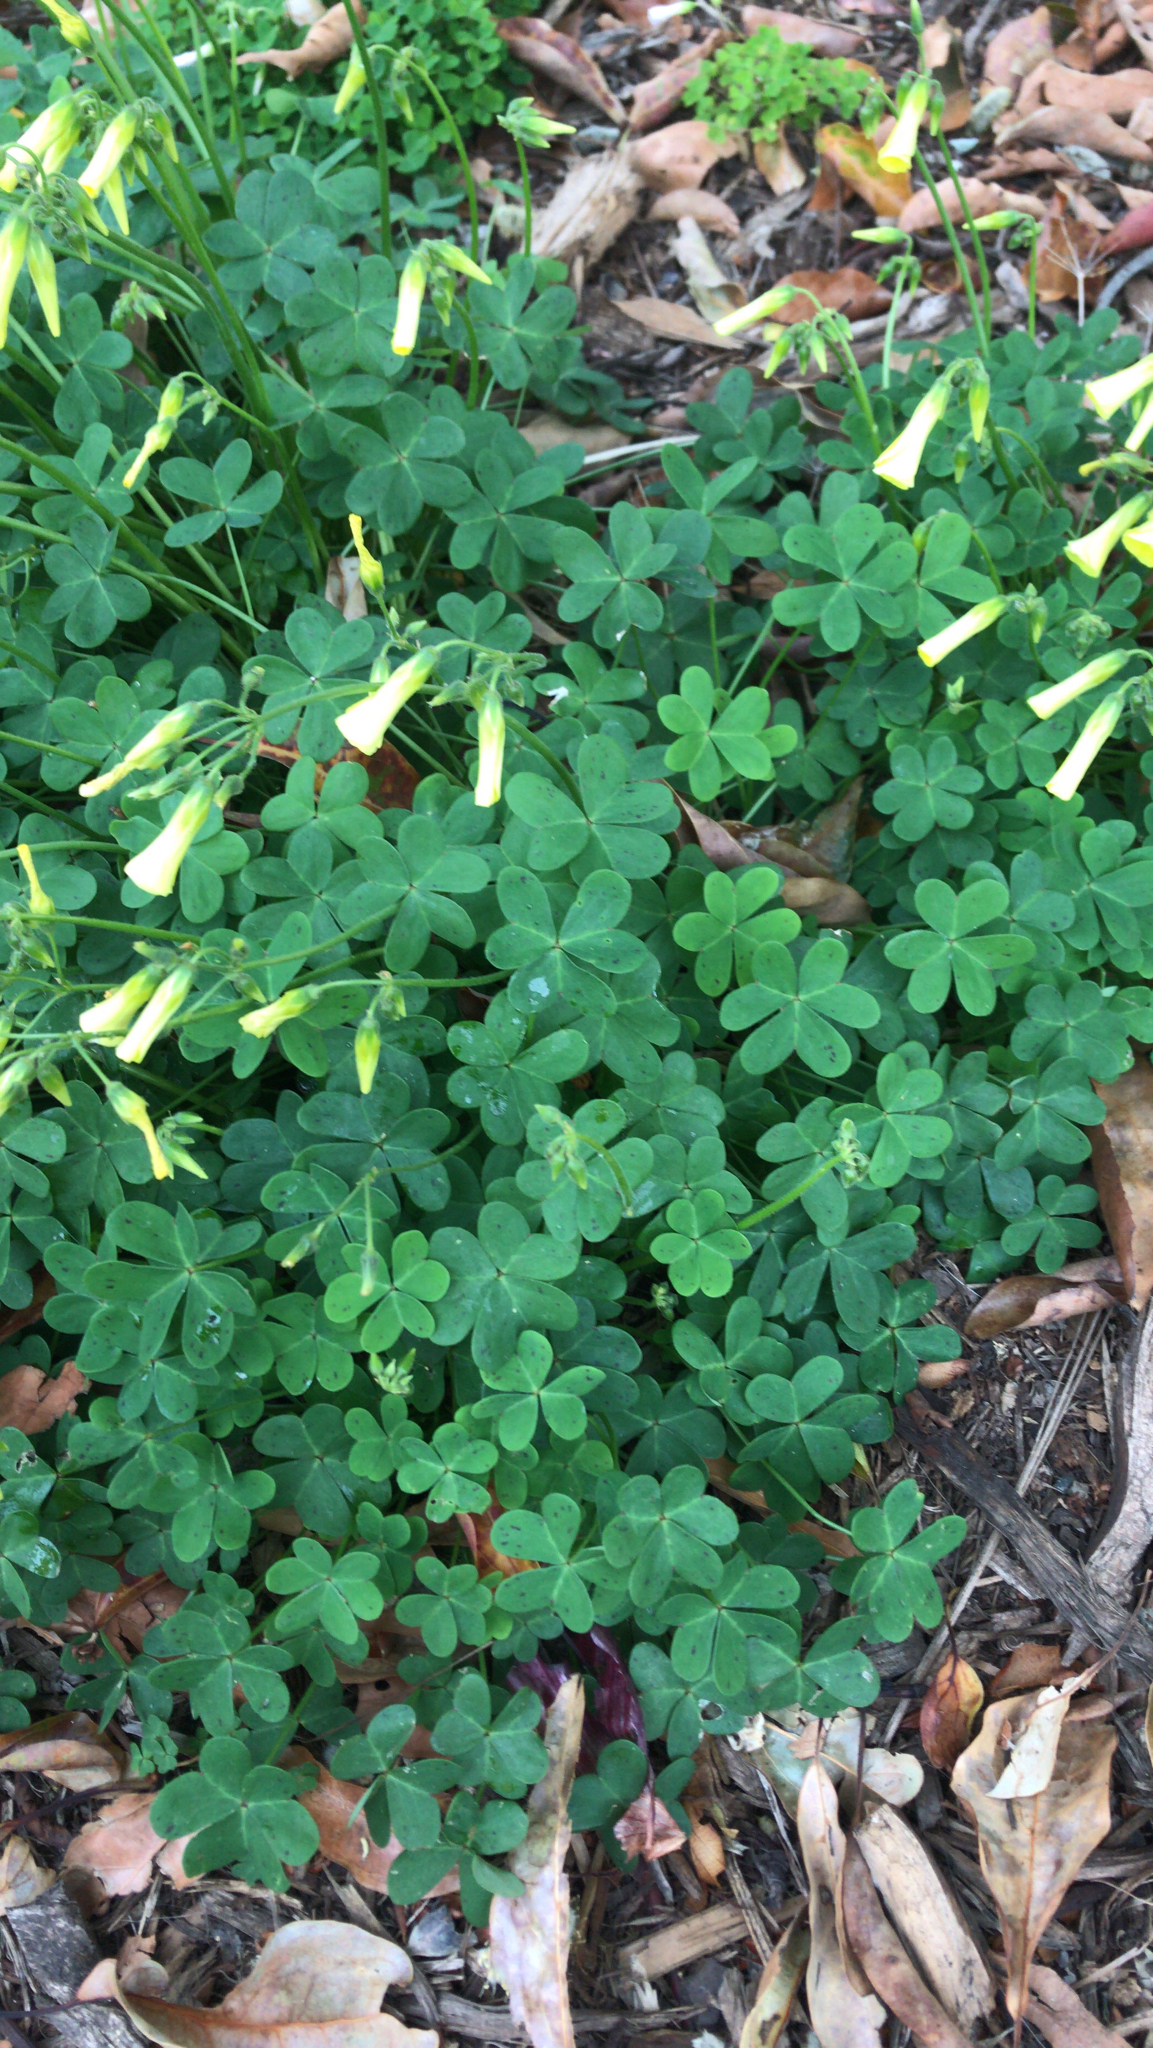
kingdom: Plantae
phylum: Tracheophyta
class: Magnoliopsida
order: Oxalidales
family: Oxalidaceae
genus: Oxalis
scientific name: Oxalis pes-caprae
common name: Bermuda-buttercup
